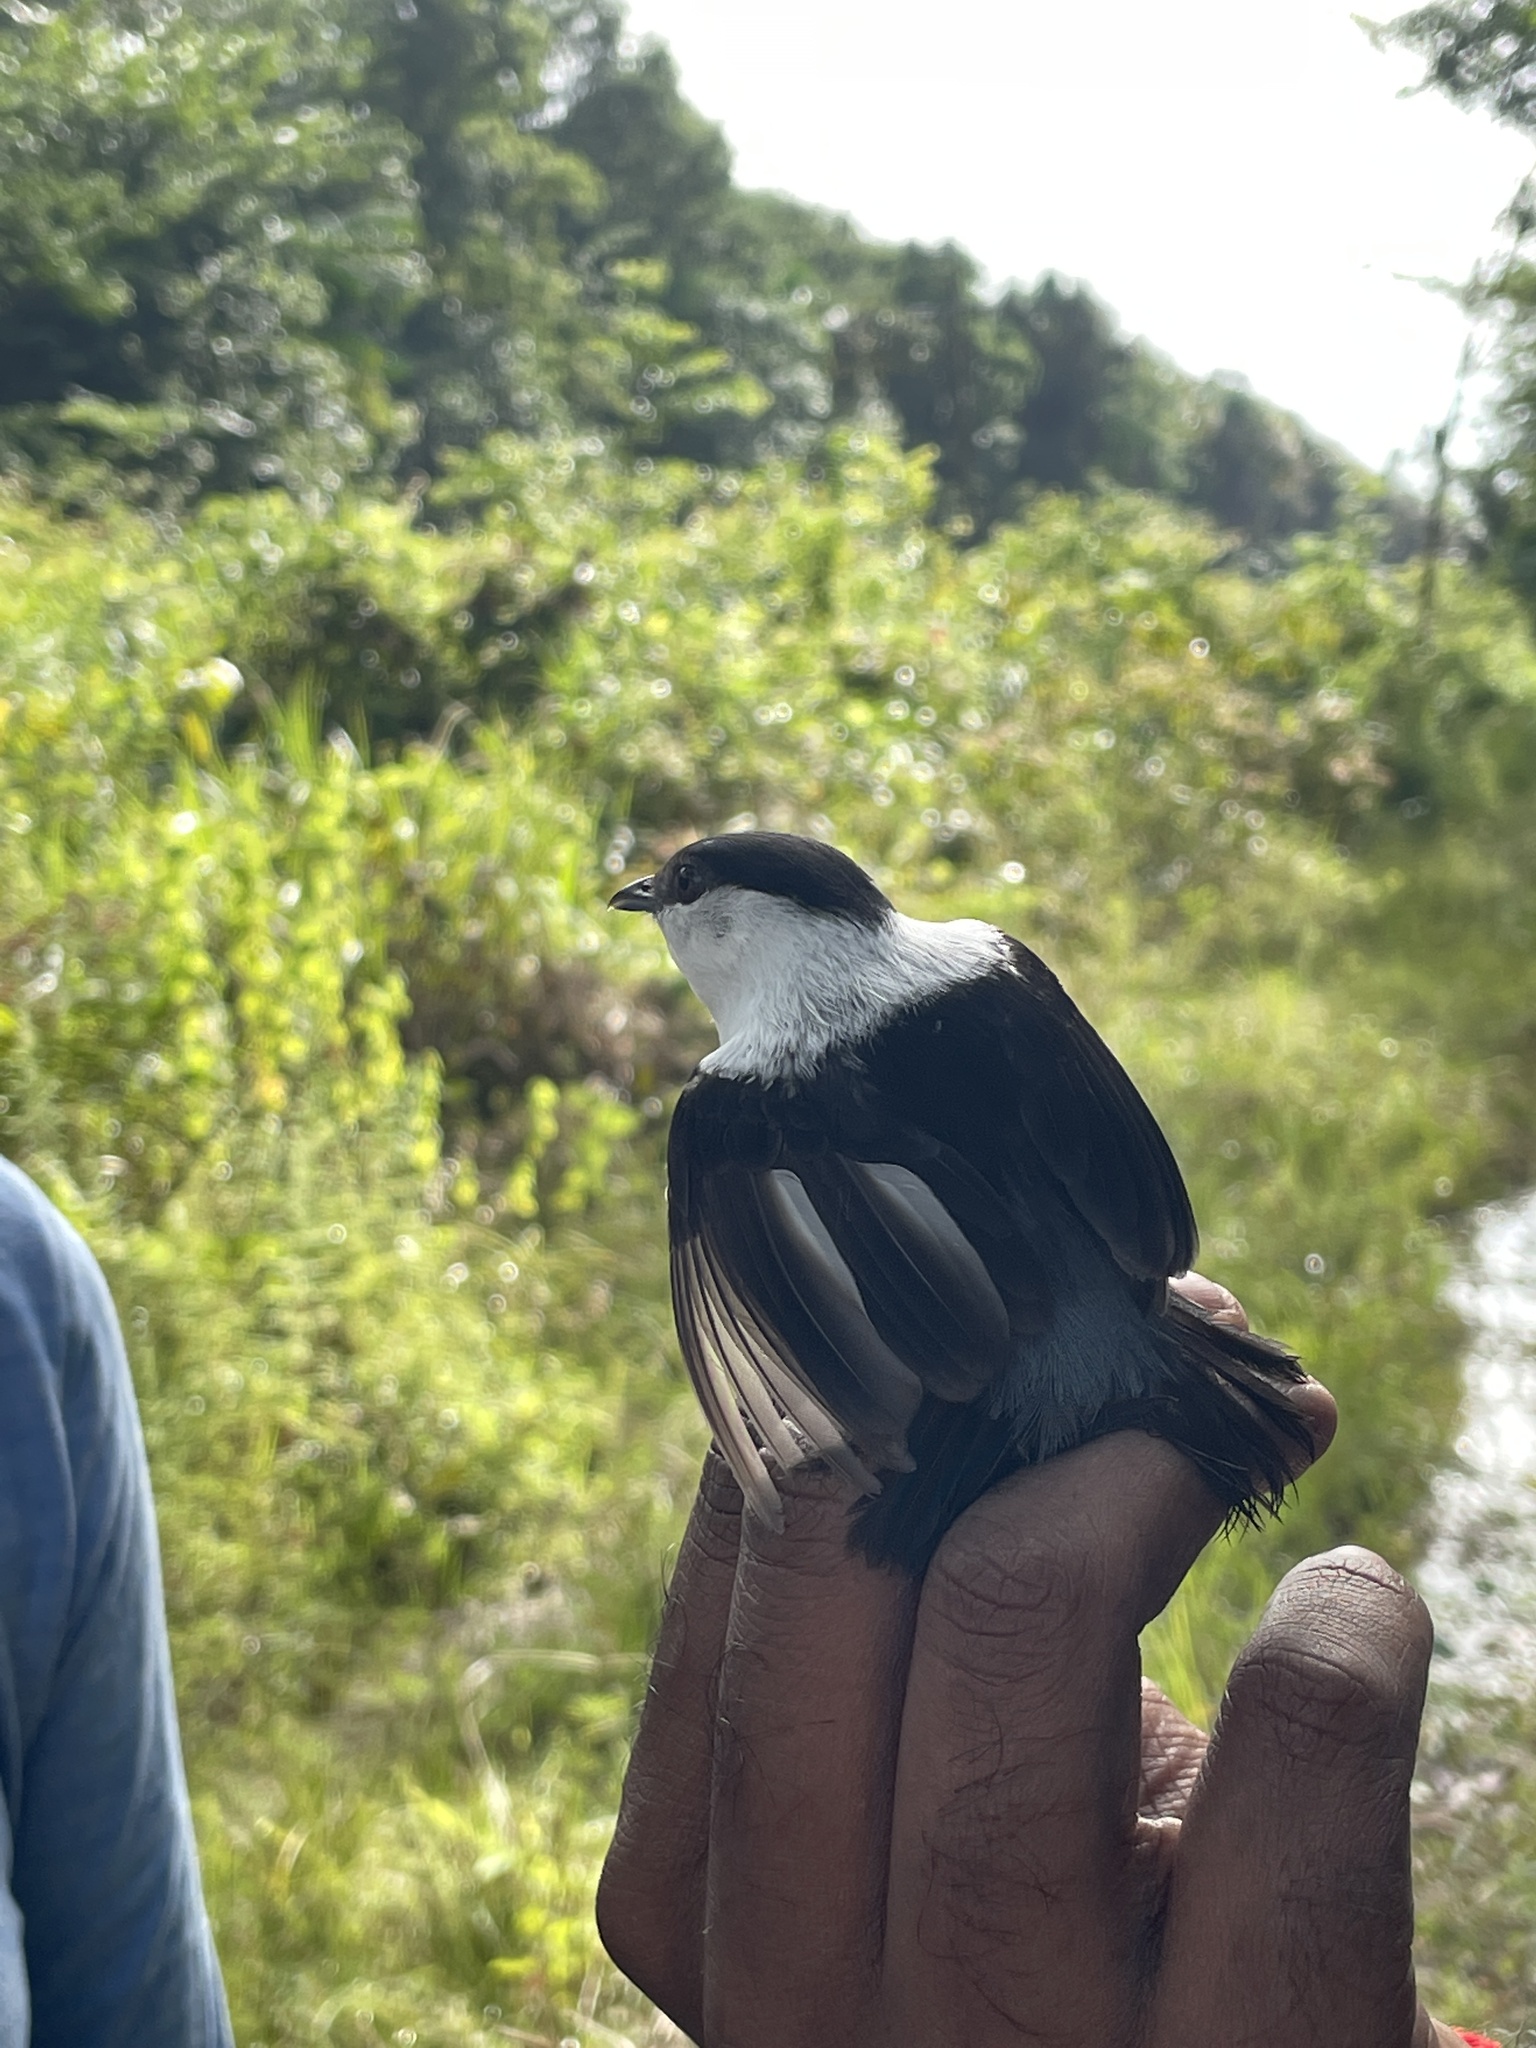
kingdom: Animalia
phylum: Chordata
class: Aves
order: Passeriformes
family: Pipridae
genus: Manacus
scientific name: Manacus manacus
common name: White-bearded manakin
